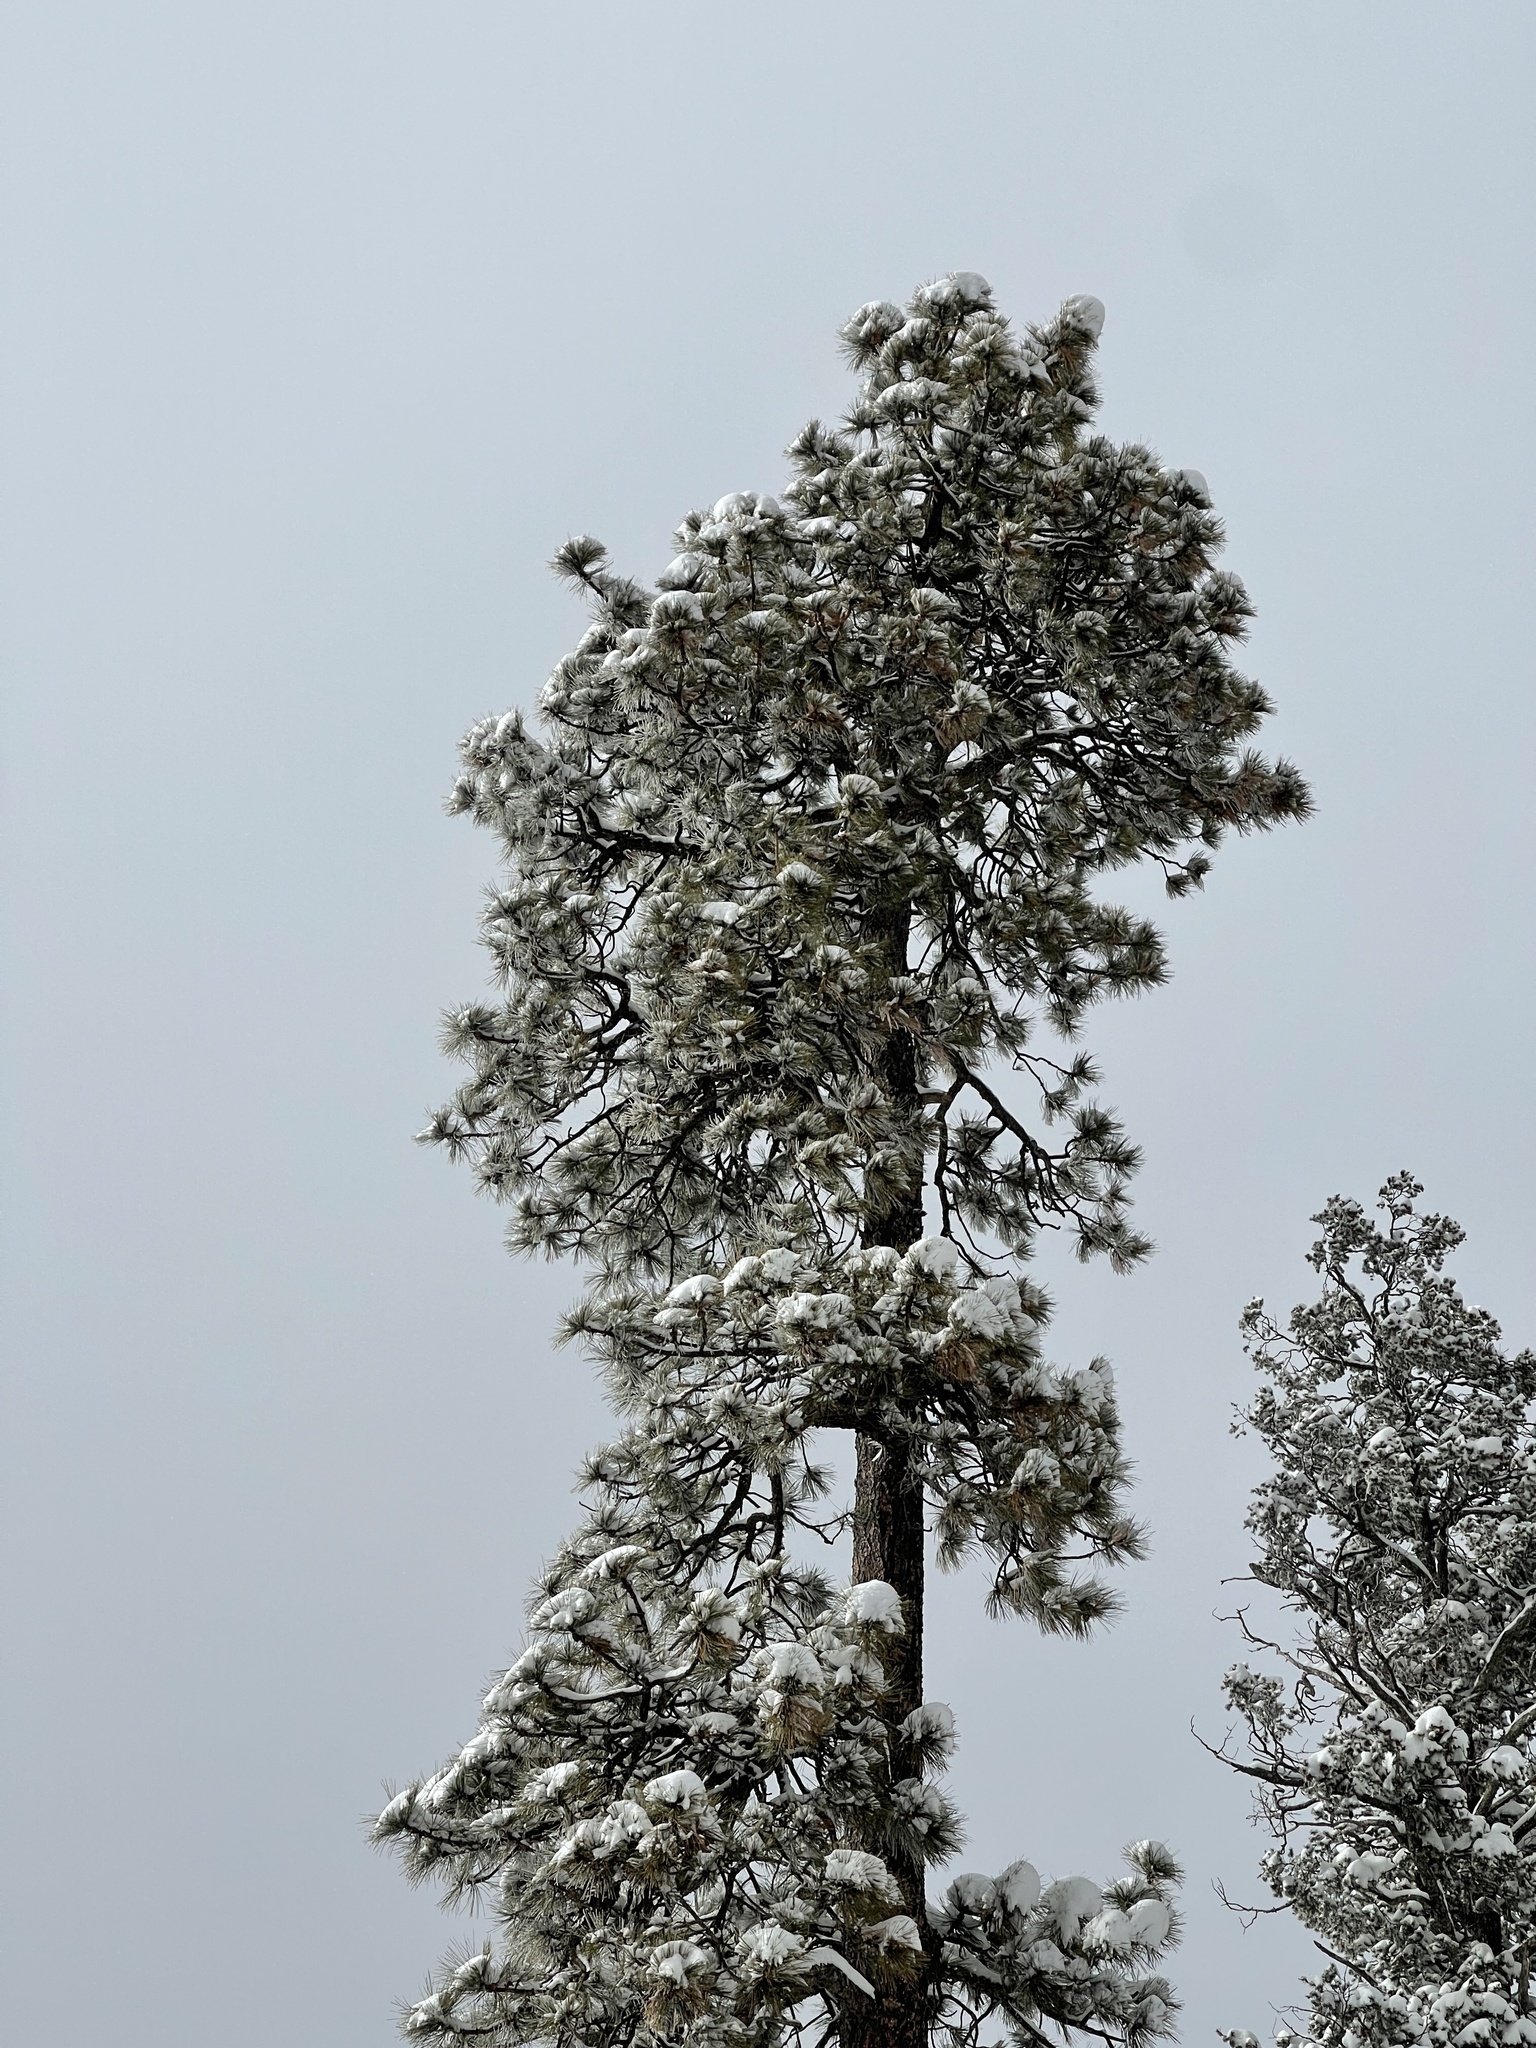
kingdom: Plantae
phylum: Tracheophyta
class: Pinopsida
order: Pinales
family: Pinaceae
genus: Pinus
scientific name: Pinus ponderosa
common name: Western yellow-pine
